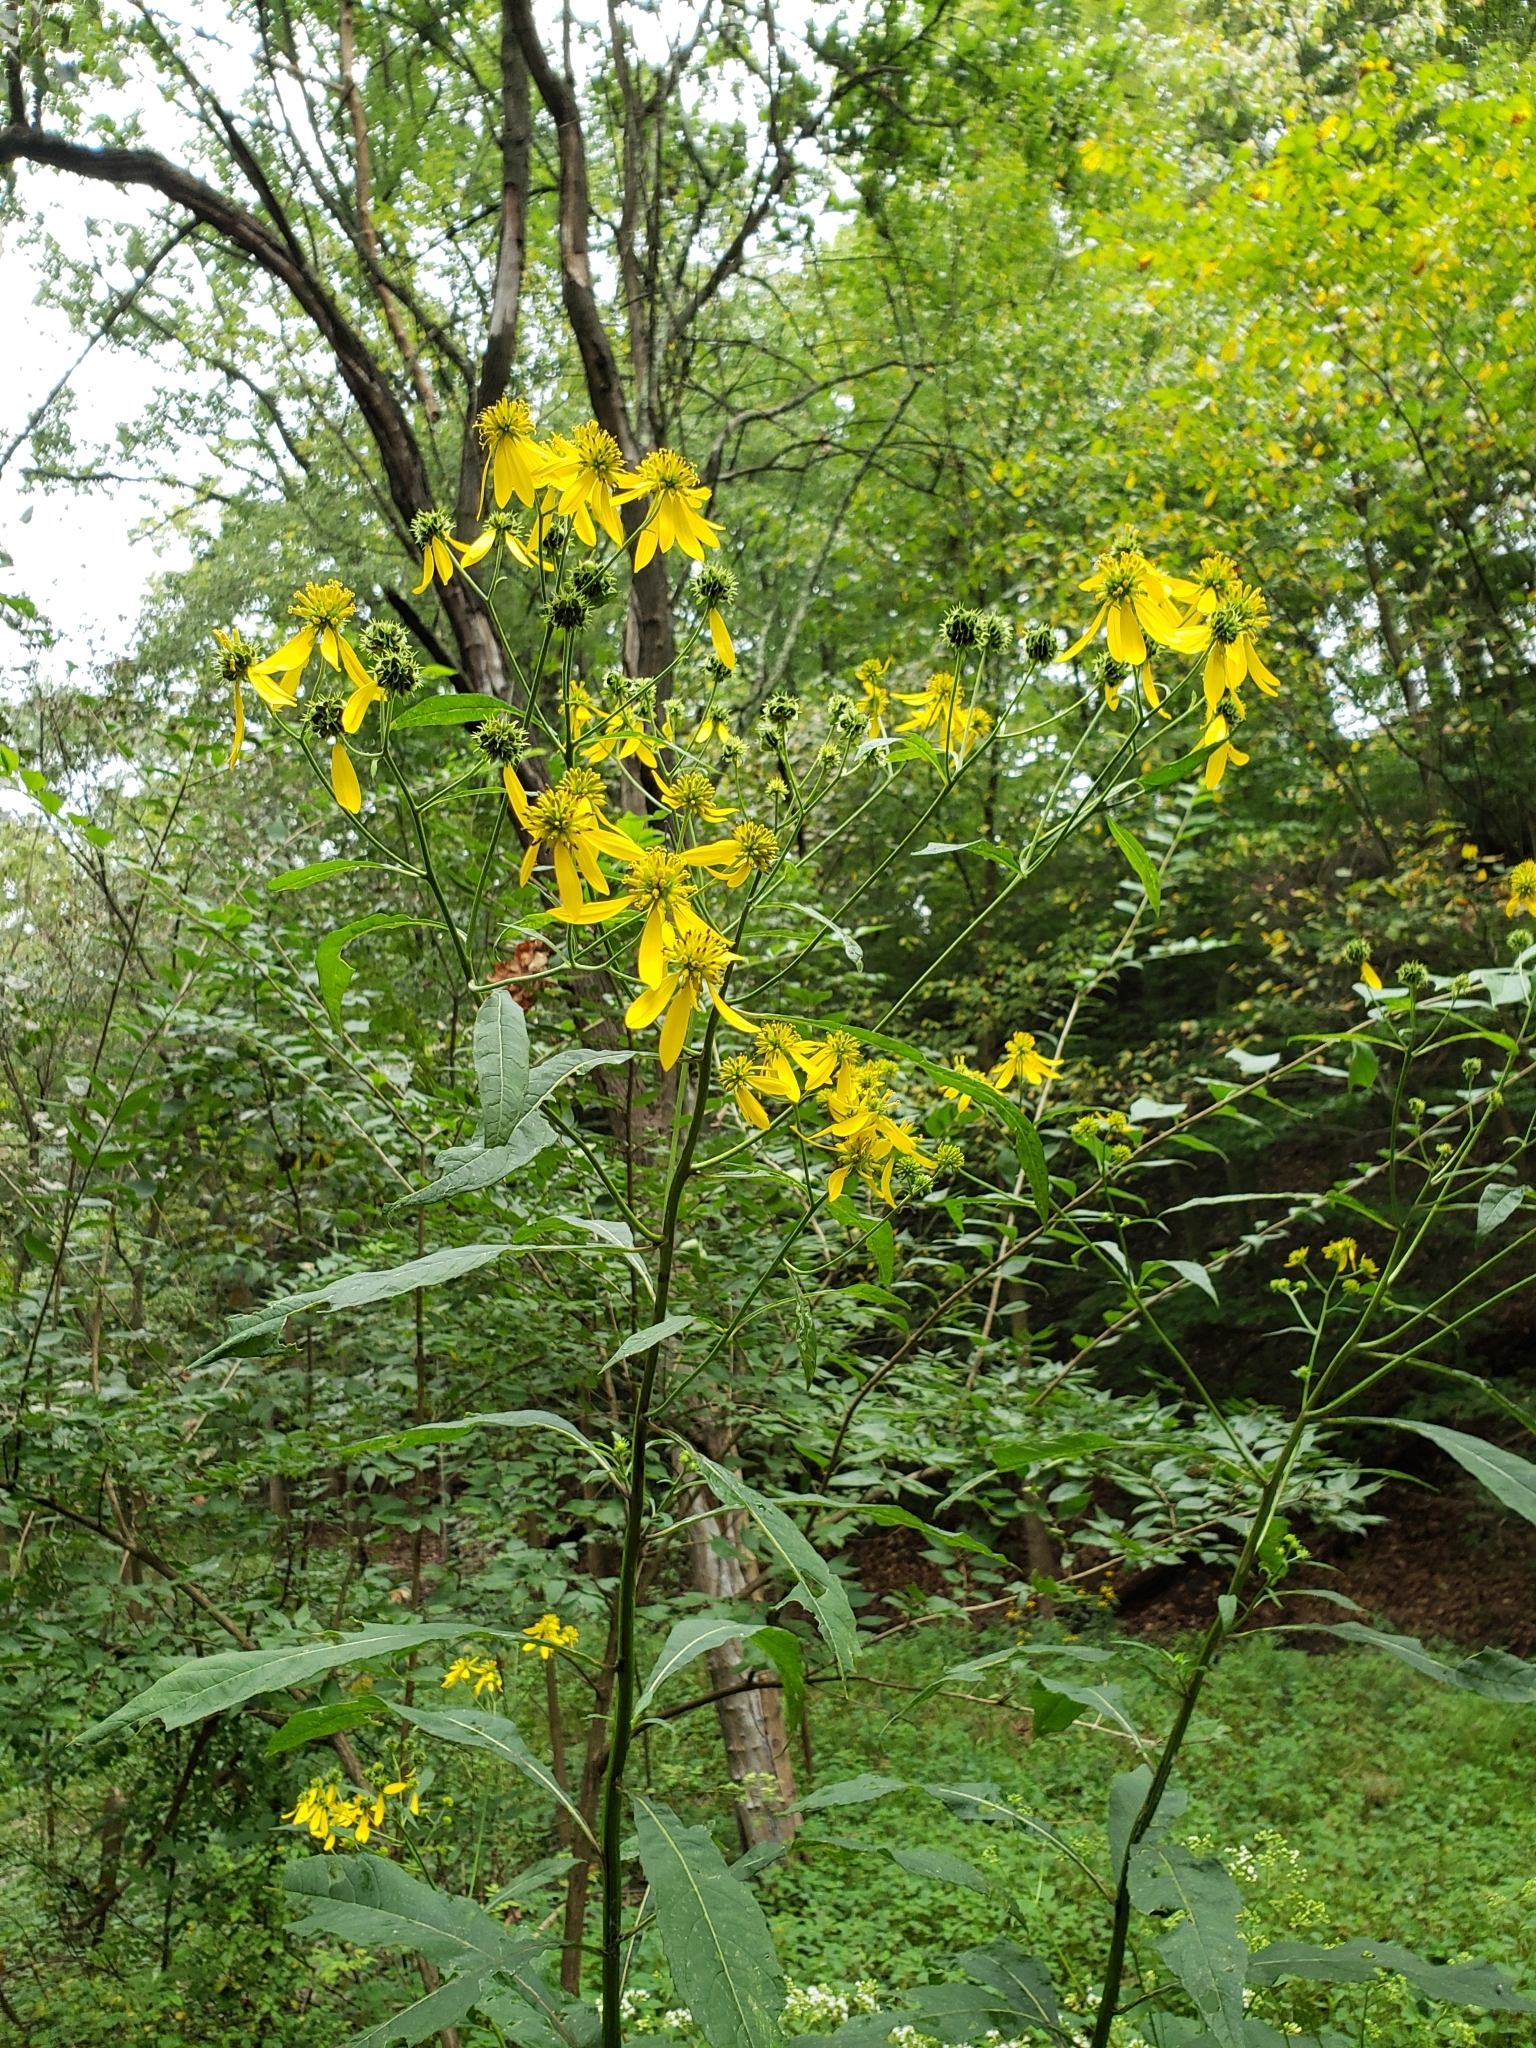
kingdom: Plantae
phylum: Tracheophyta
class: Magnoliopsida
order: Asterales
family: Asteraceae
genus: Verbesina
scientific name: Verbesina alternifolia
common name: Wingstem
